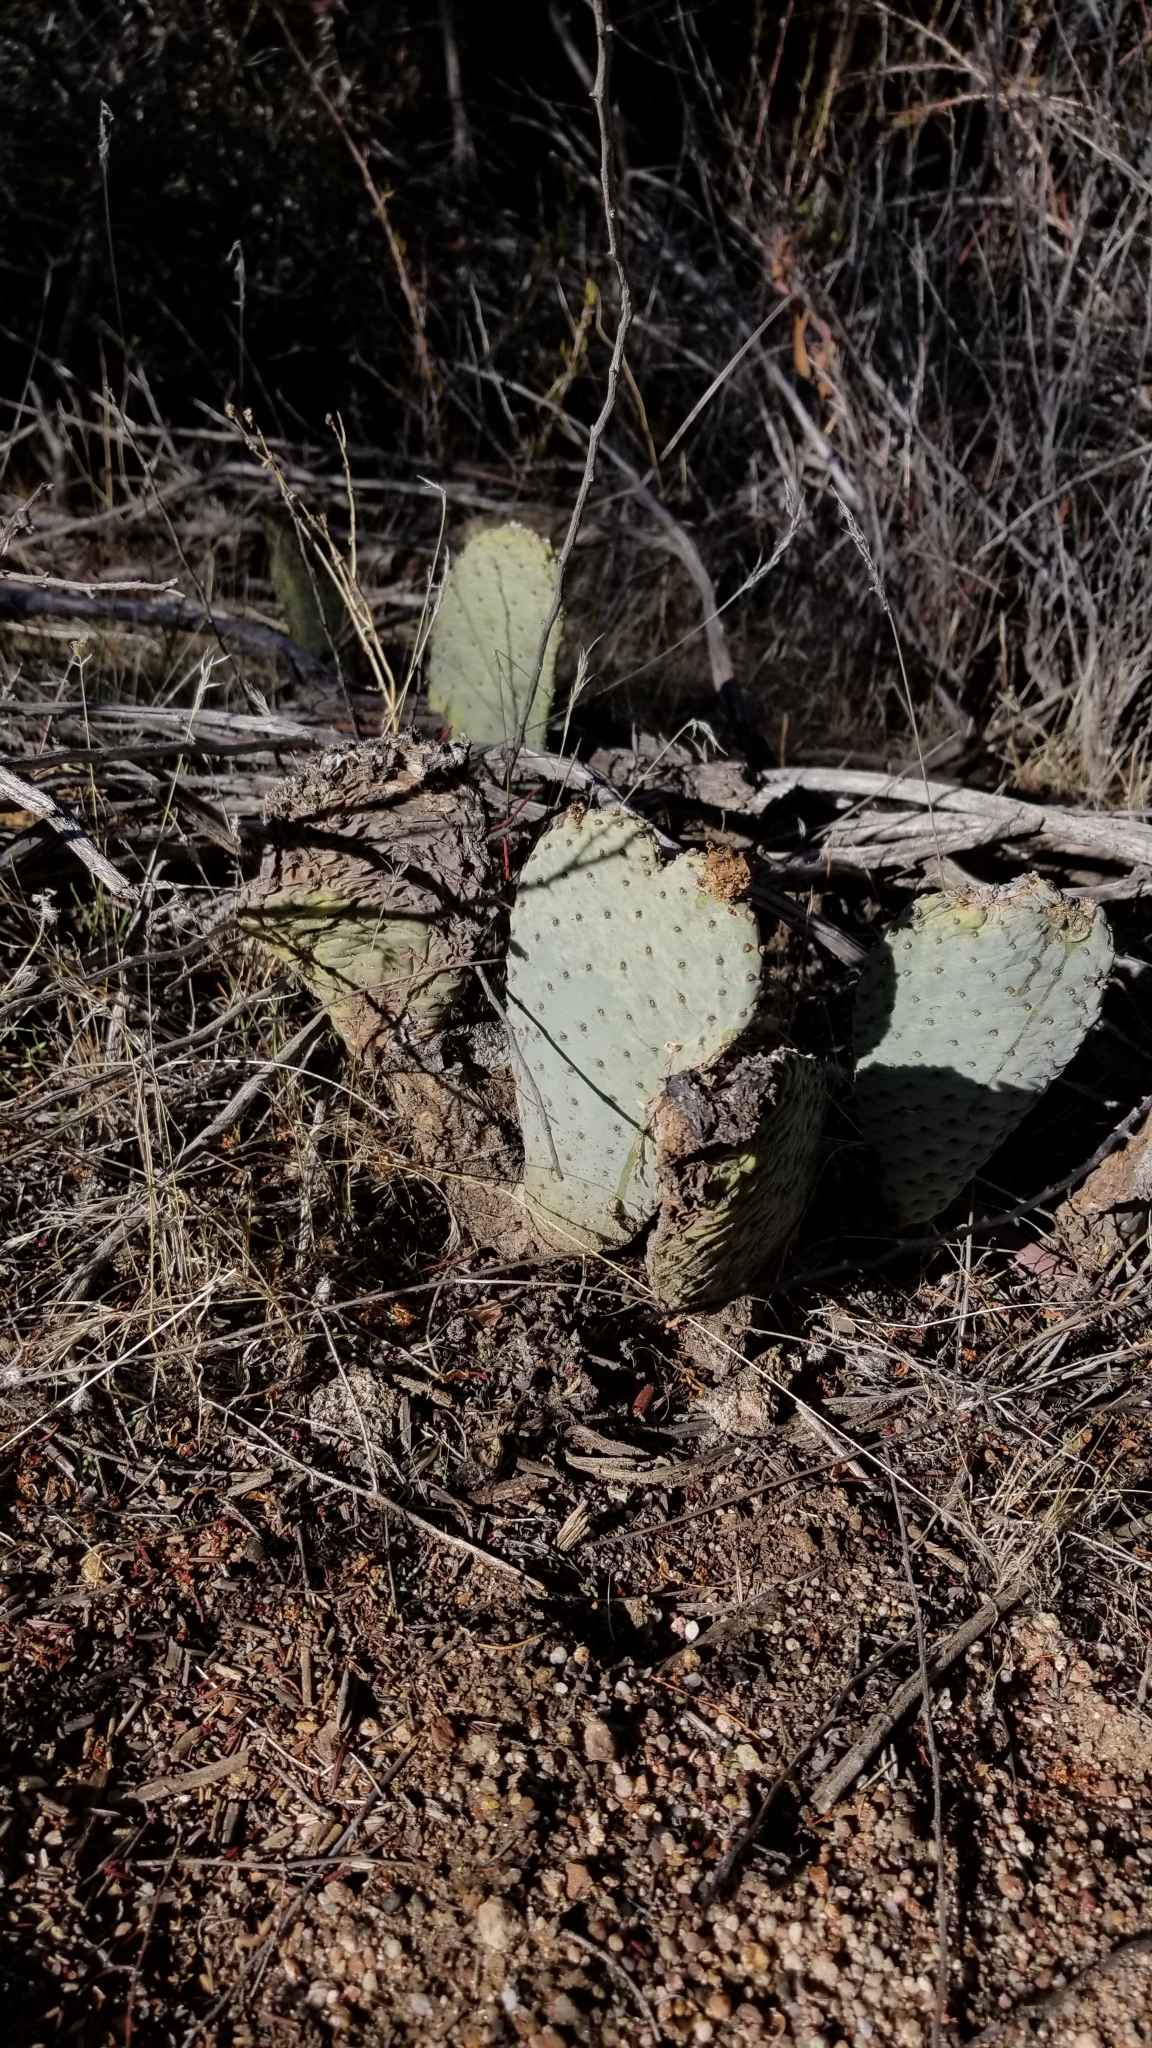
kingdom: Plantae
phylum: Tracheophyta
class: Magnoliopsida
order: Caryophyllales
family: Cactaceae
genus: Opuntia
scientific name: Opuntia basilaris
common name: Beavertail prickly-pear
